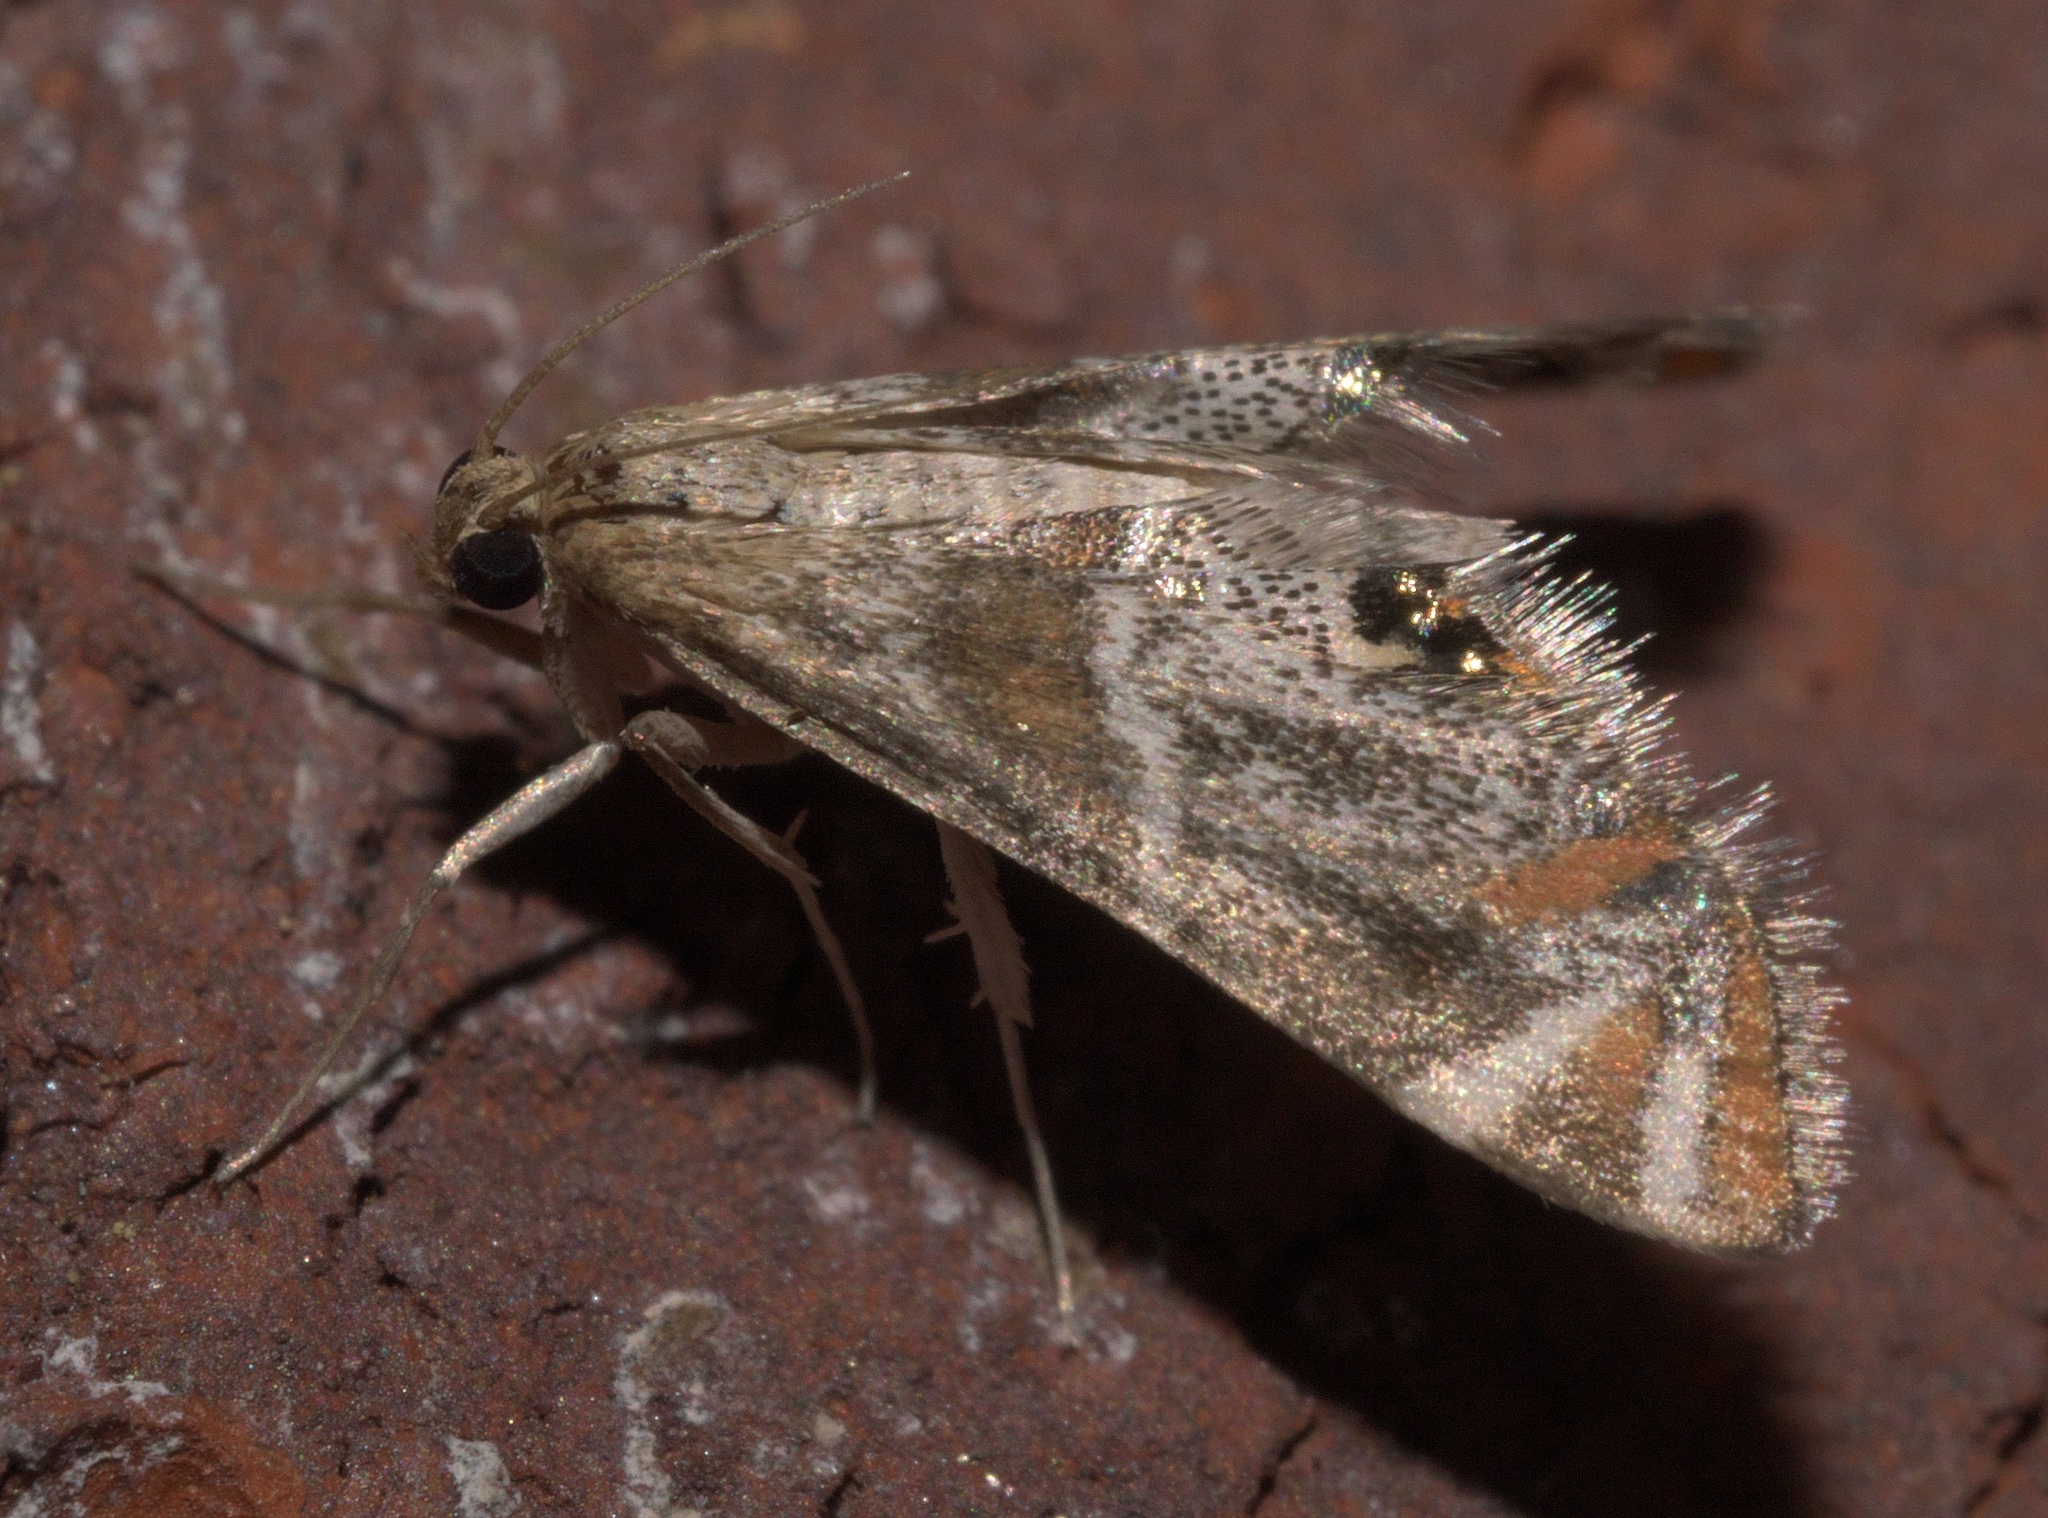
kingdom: Animalia
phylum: Arthropoda
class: Insecta
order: Lepidoptera
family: Crambidae
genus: Petrophila
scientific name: Petrophila jaliscalis
